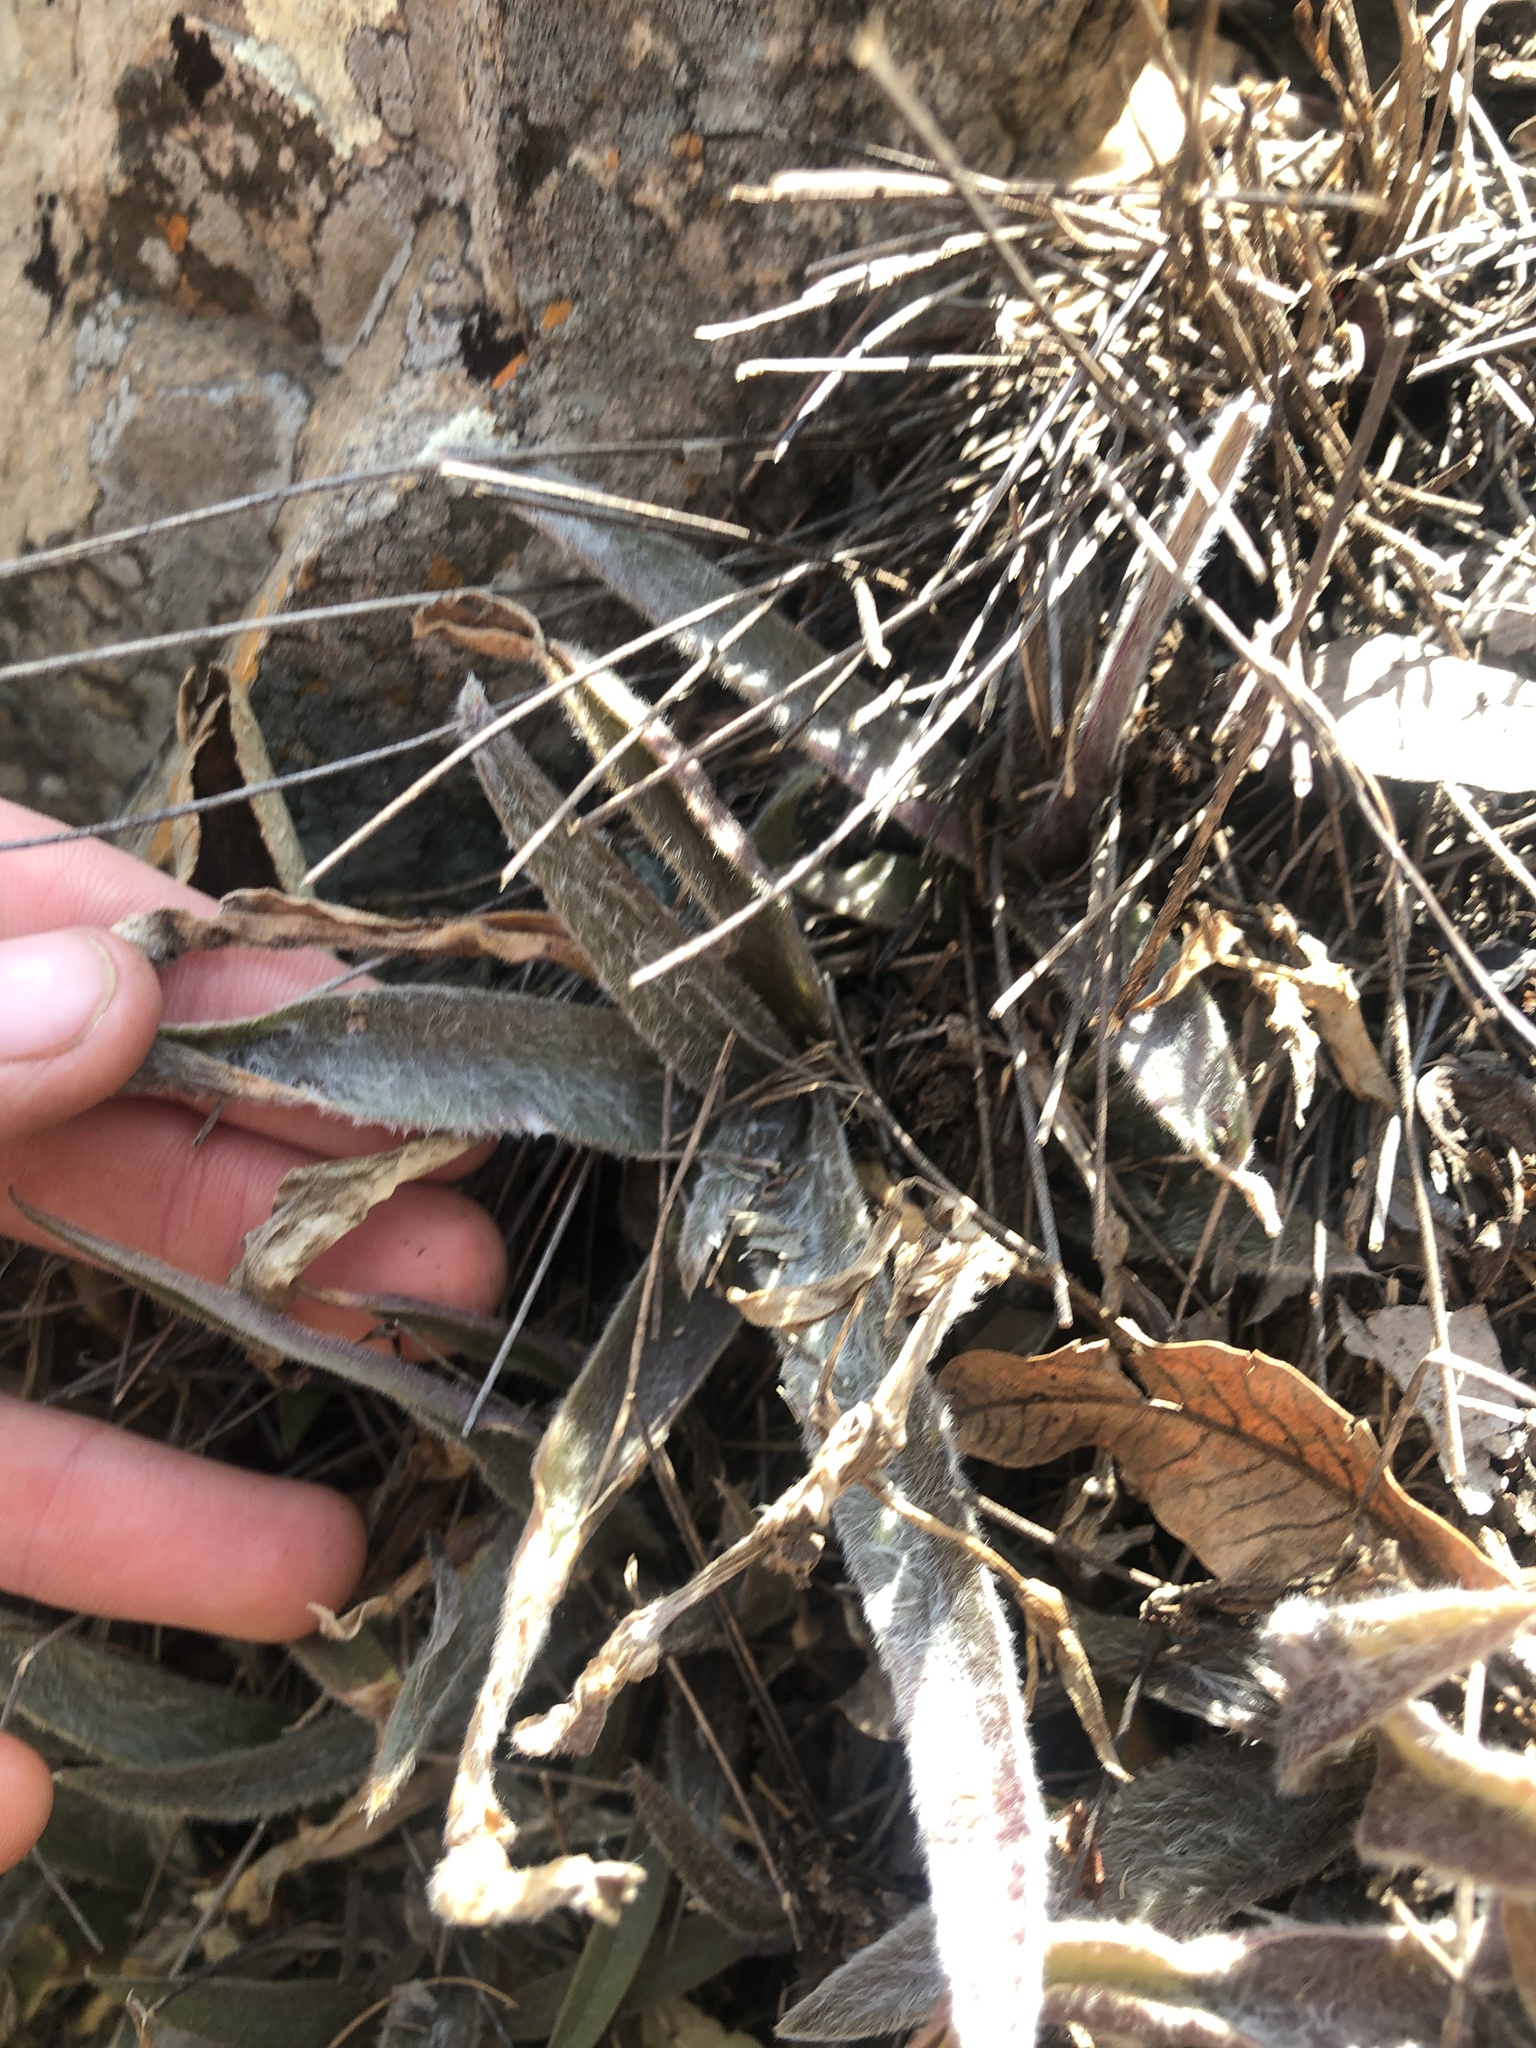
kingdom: Plantae
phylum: Tracheophyta
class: Liliopsida
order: Commelinales
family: Commelinaceae
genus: Cyanotis
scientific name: Cyanotis lapidosa
